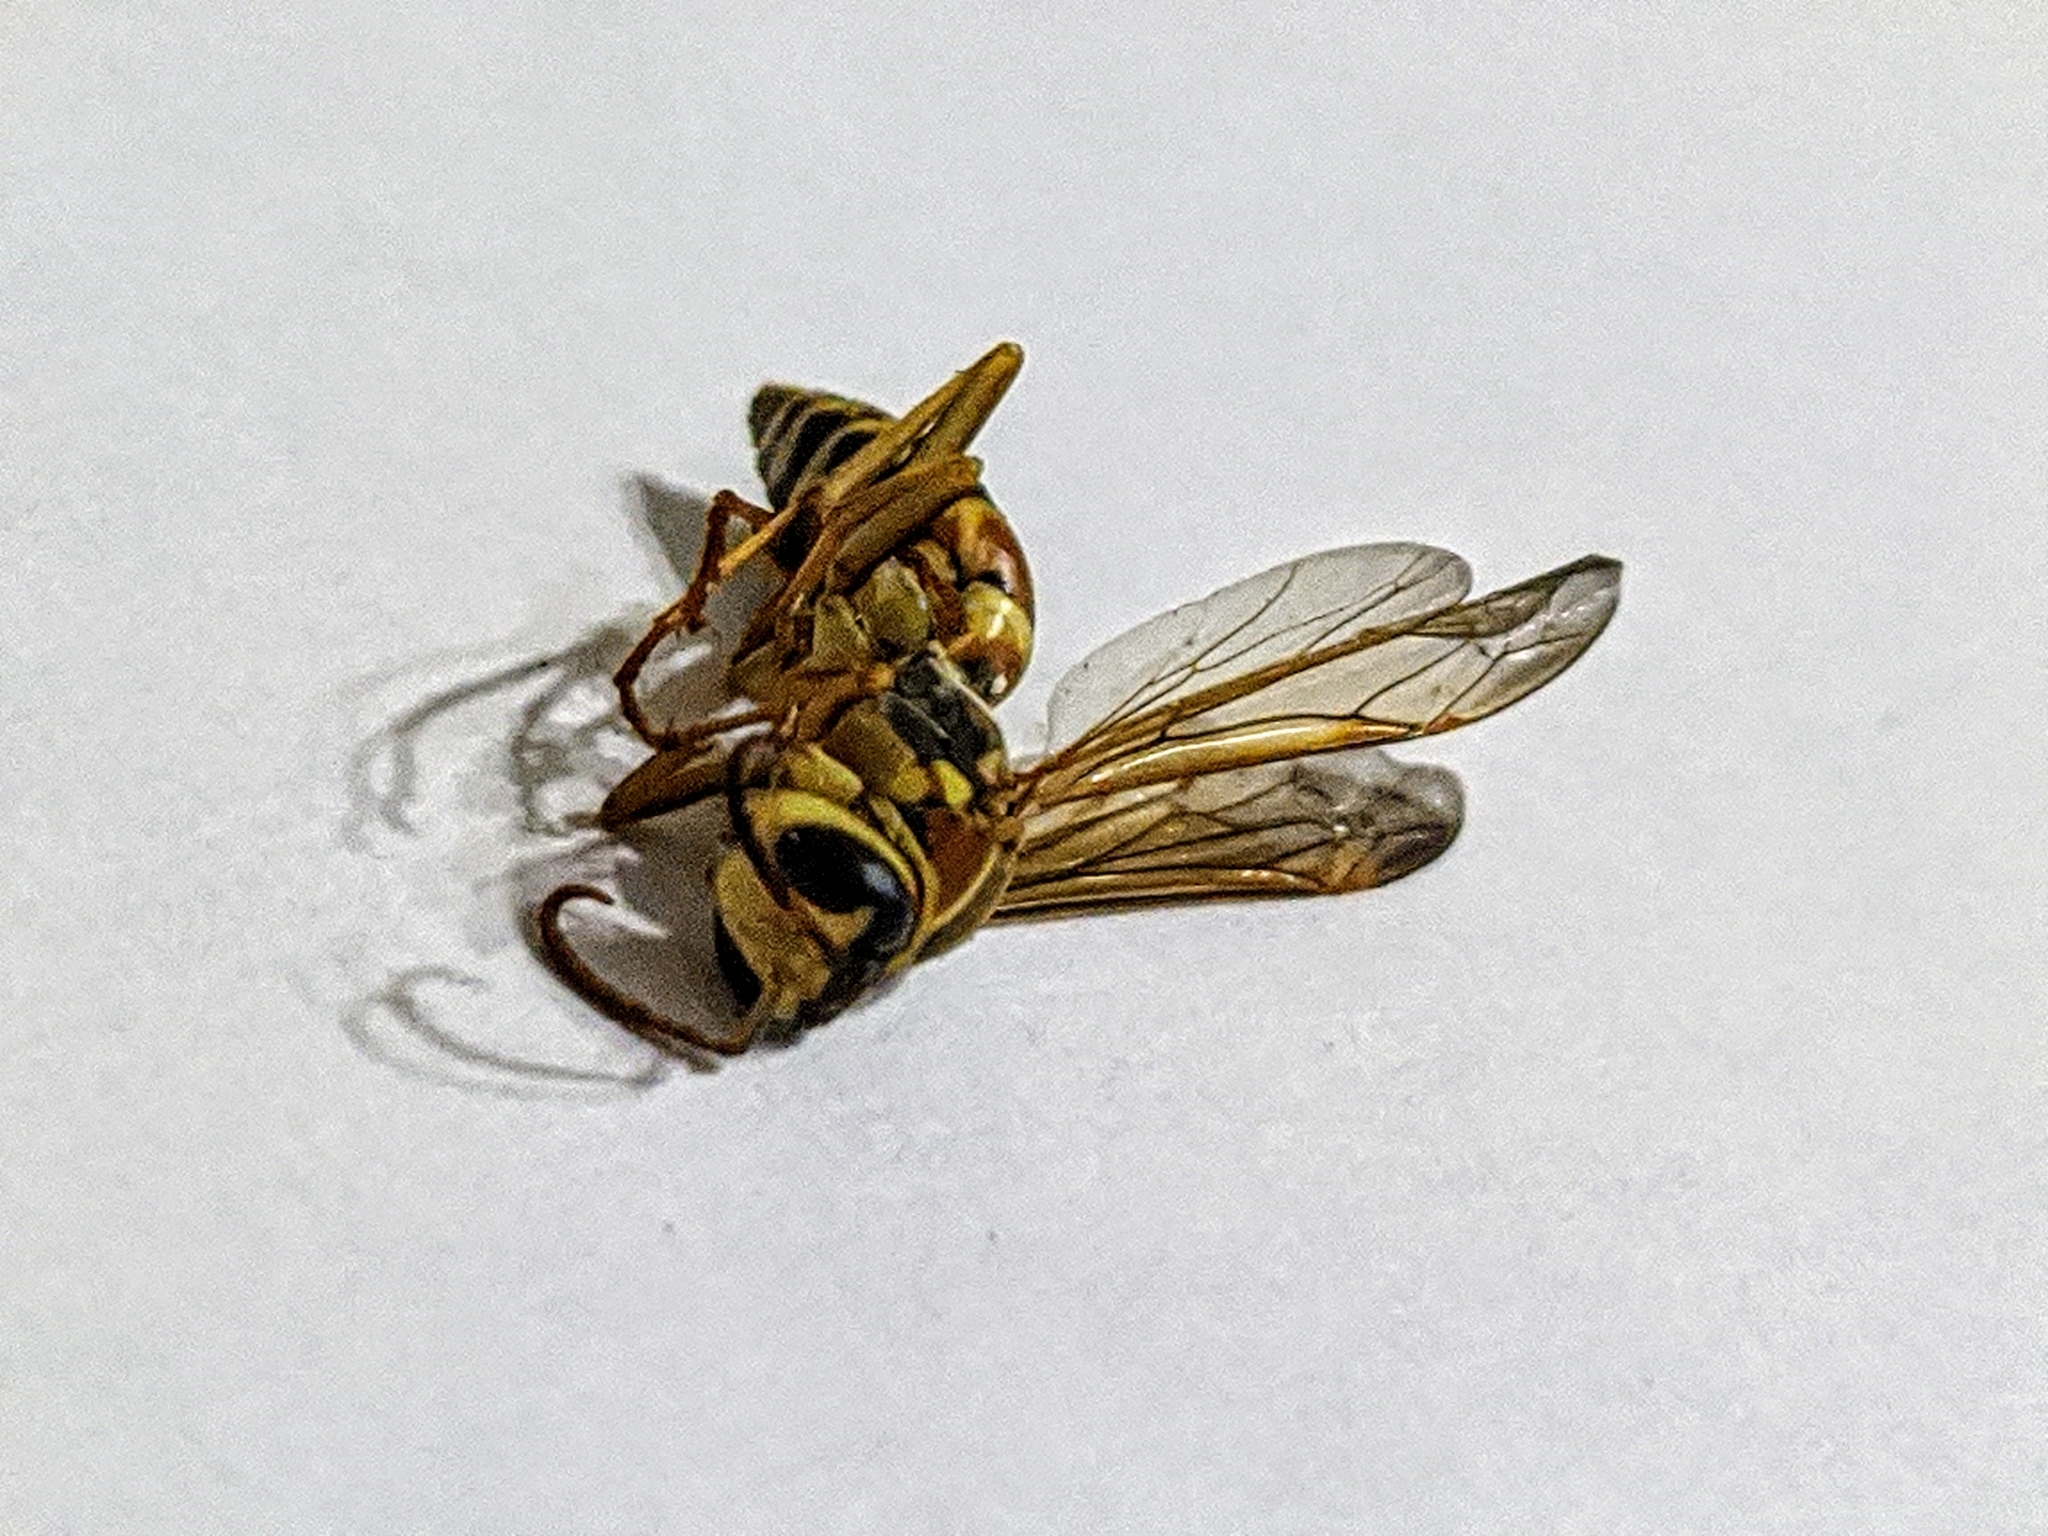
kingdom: Animalia
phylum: Arthropoda
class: Insecta
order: Hymenoptera
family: Eumenidae
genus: Polistes
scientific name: Polistes dorsalis
